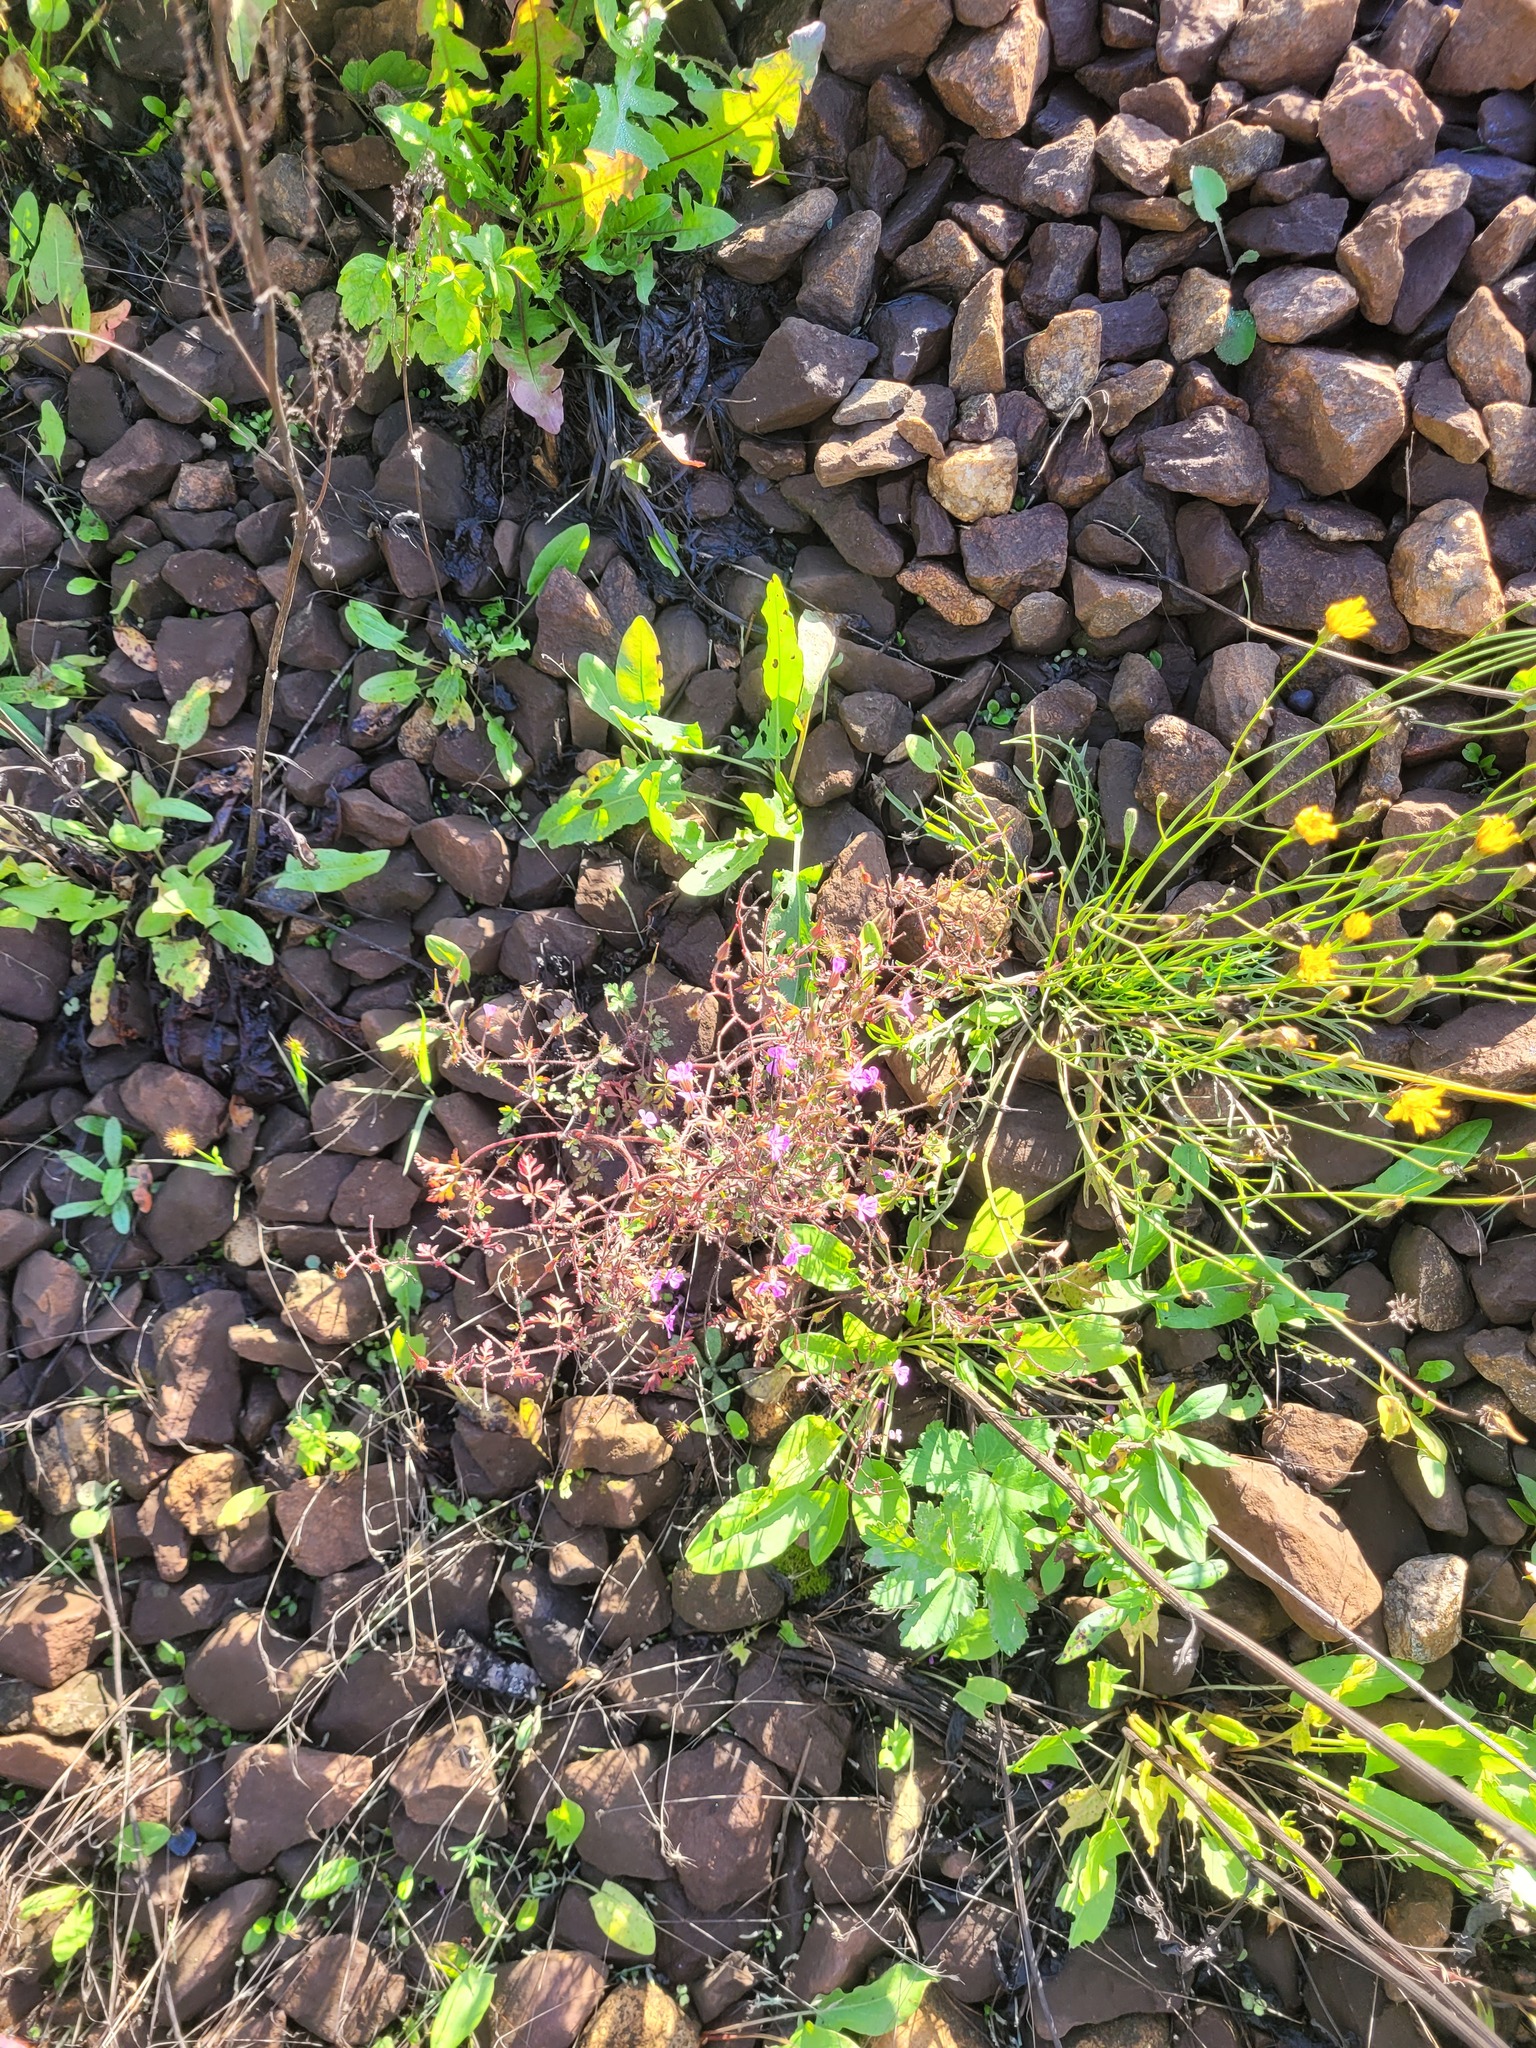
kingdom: Plantae
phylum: Tracheophyta
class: Magnoliopsida
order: Geraniales
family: Geraniaceae
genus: Geranium
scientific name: Geranium robertianum
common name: Herb-robert
